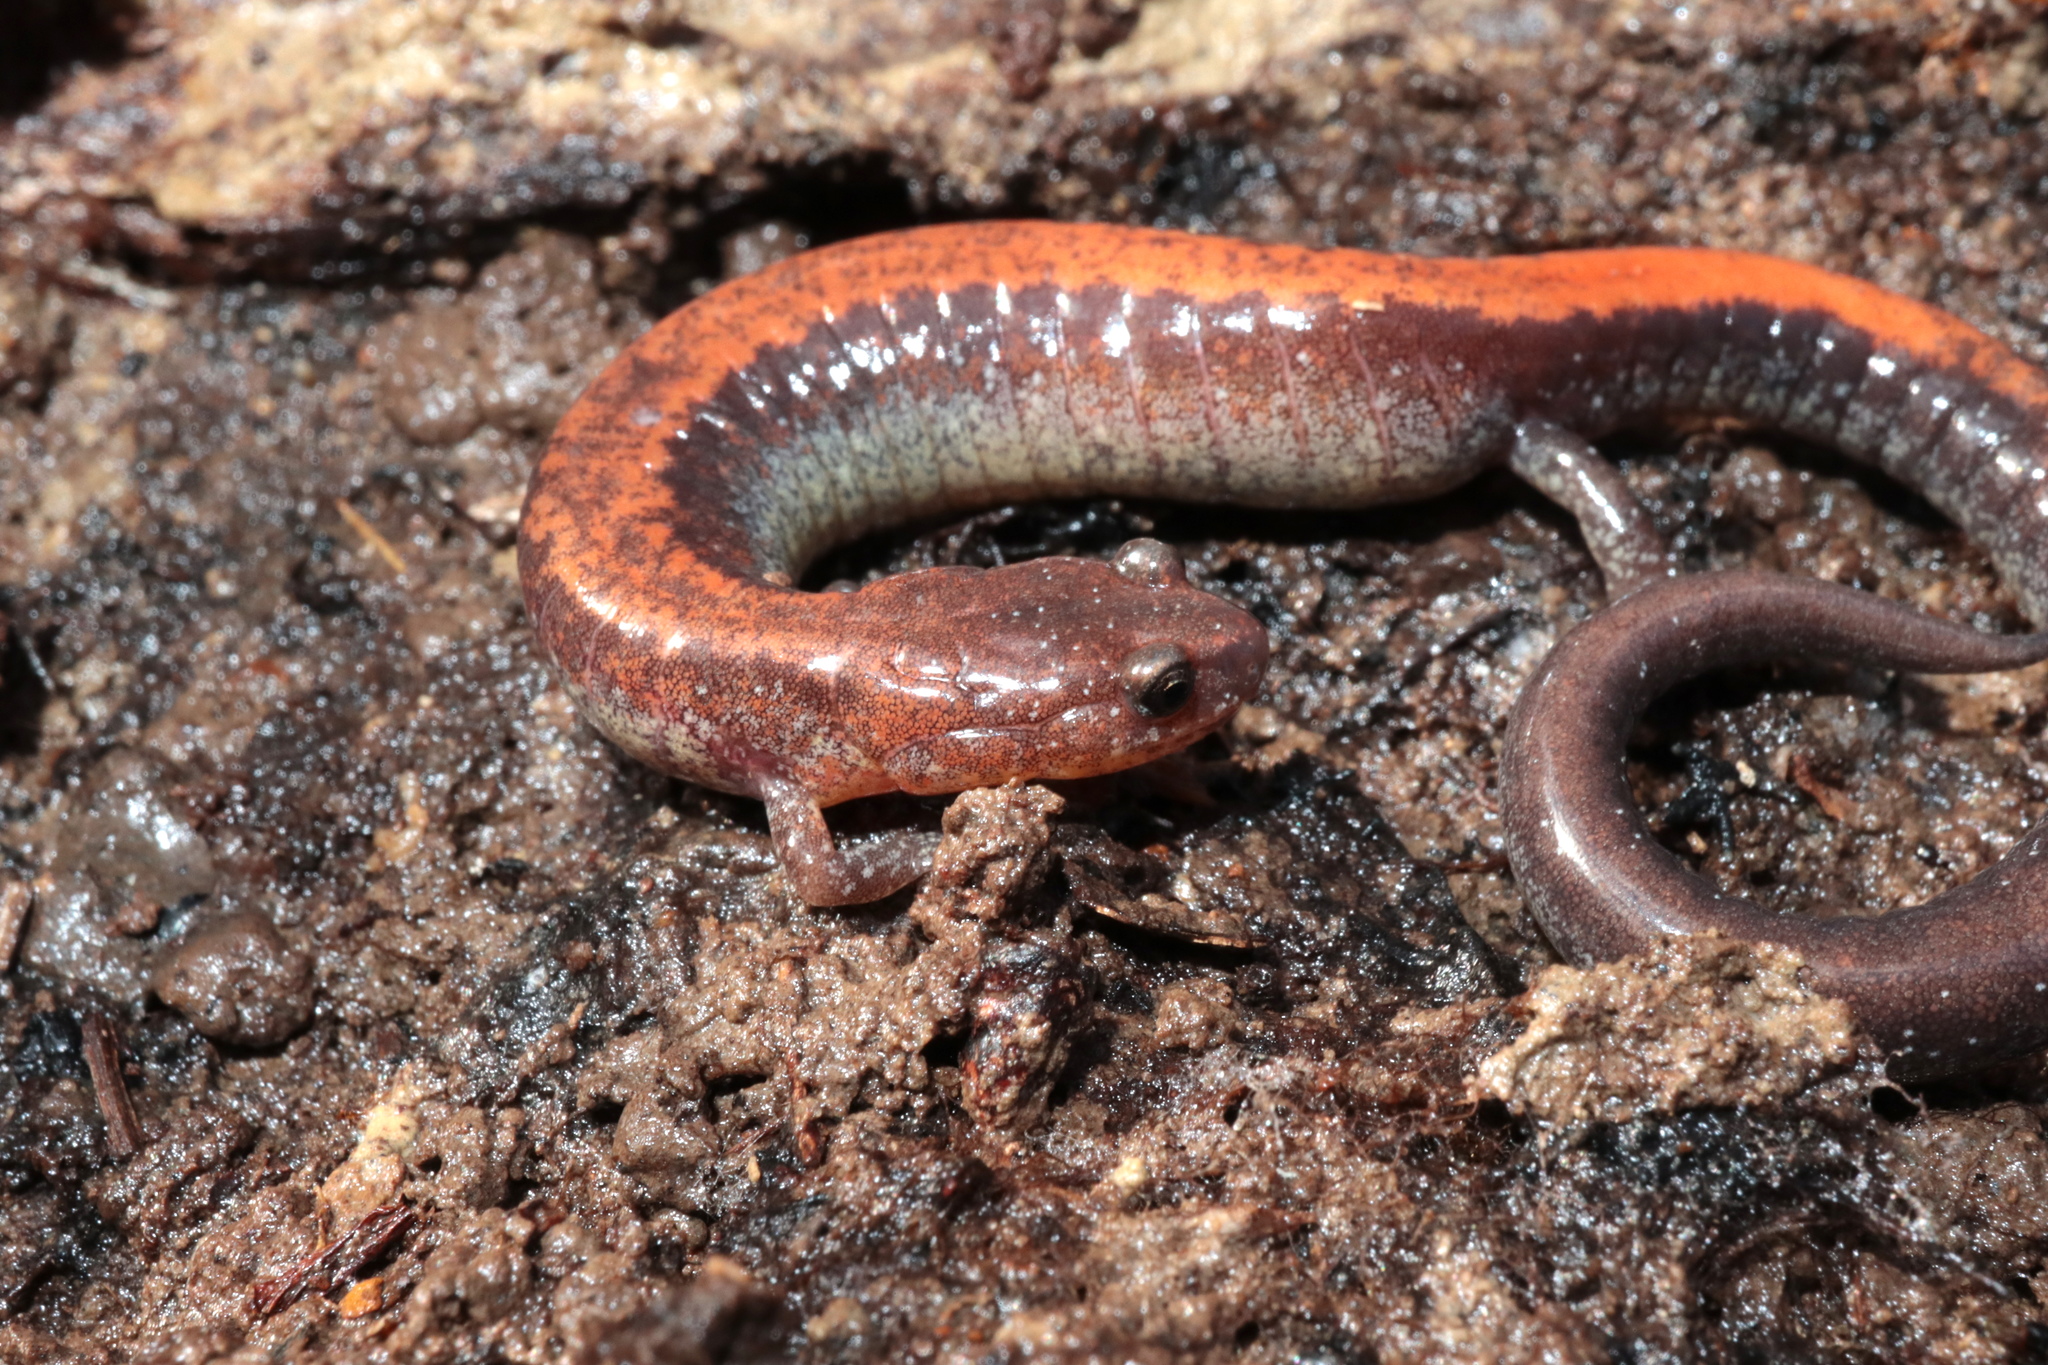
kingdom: Animalia
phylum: Chordata
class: Amphibia
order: Caudata
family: Plethodontidae
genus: Plethodon
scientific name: Plethodon cinereus
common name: Redback salamander
